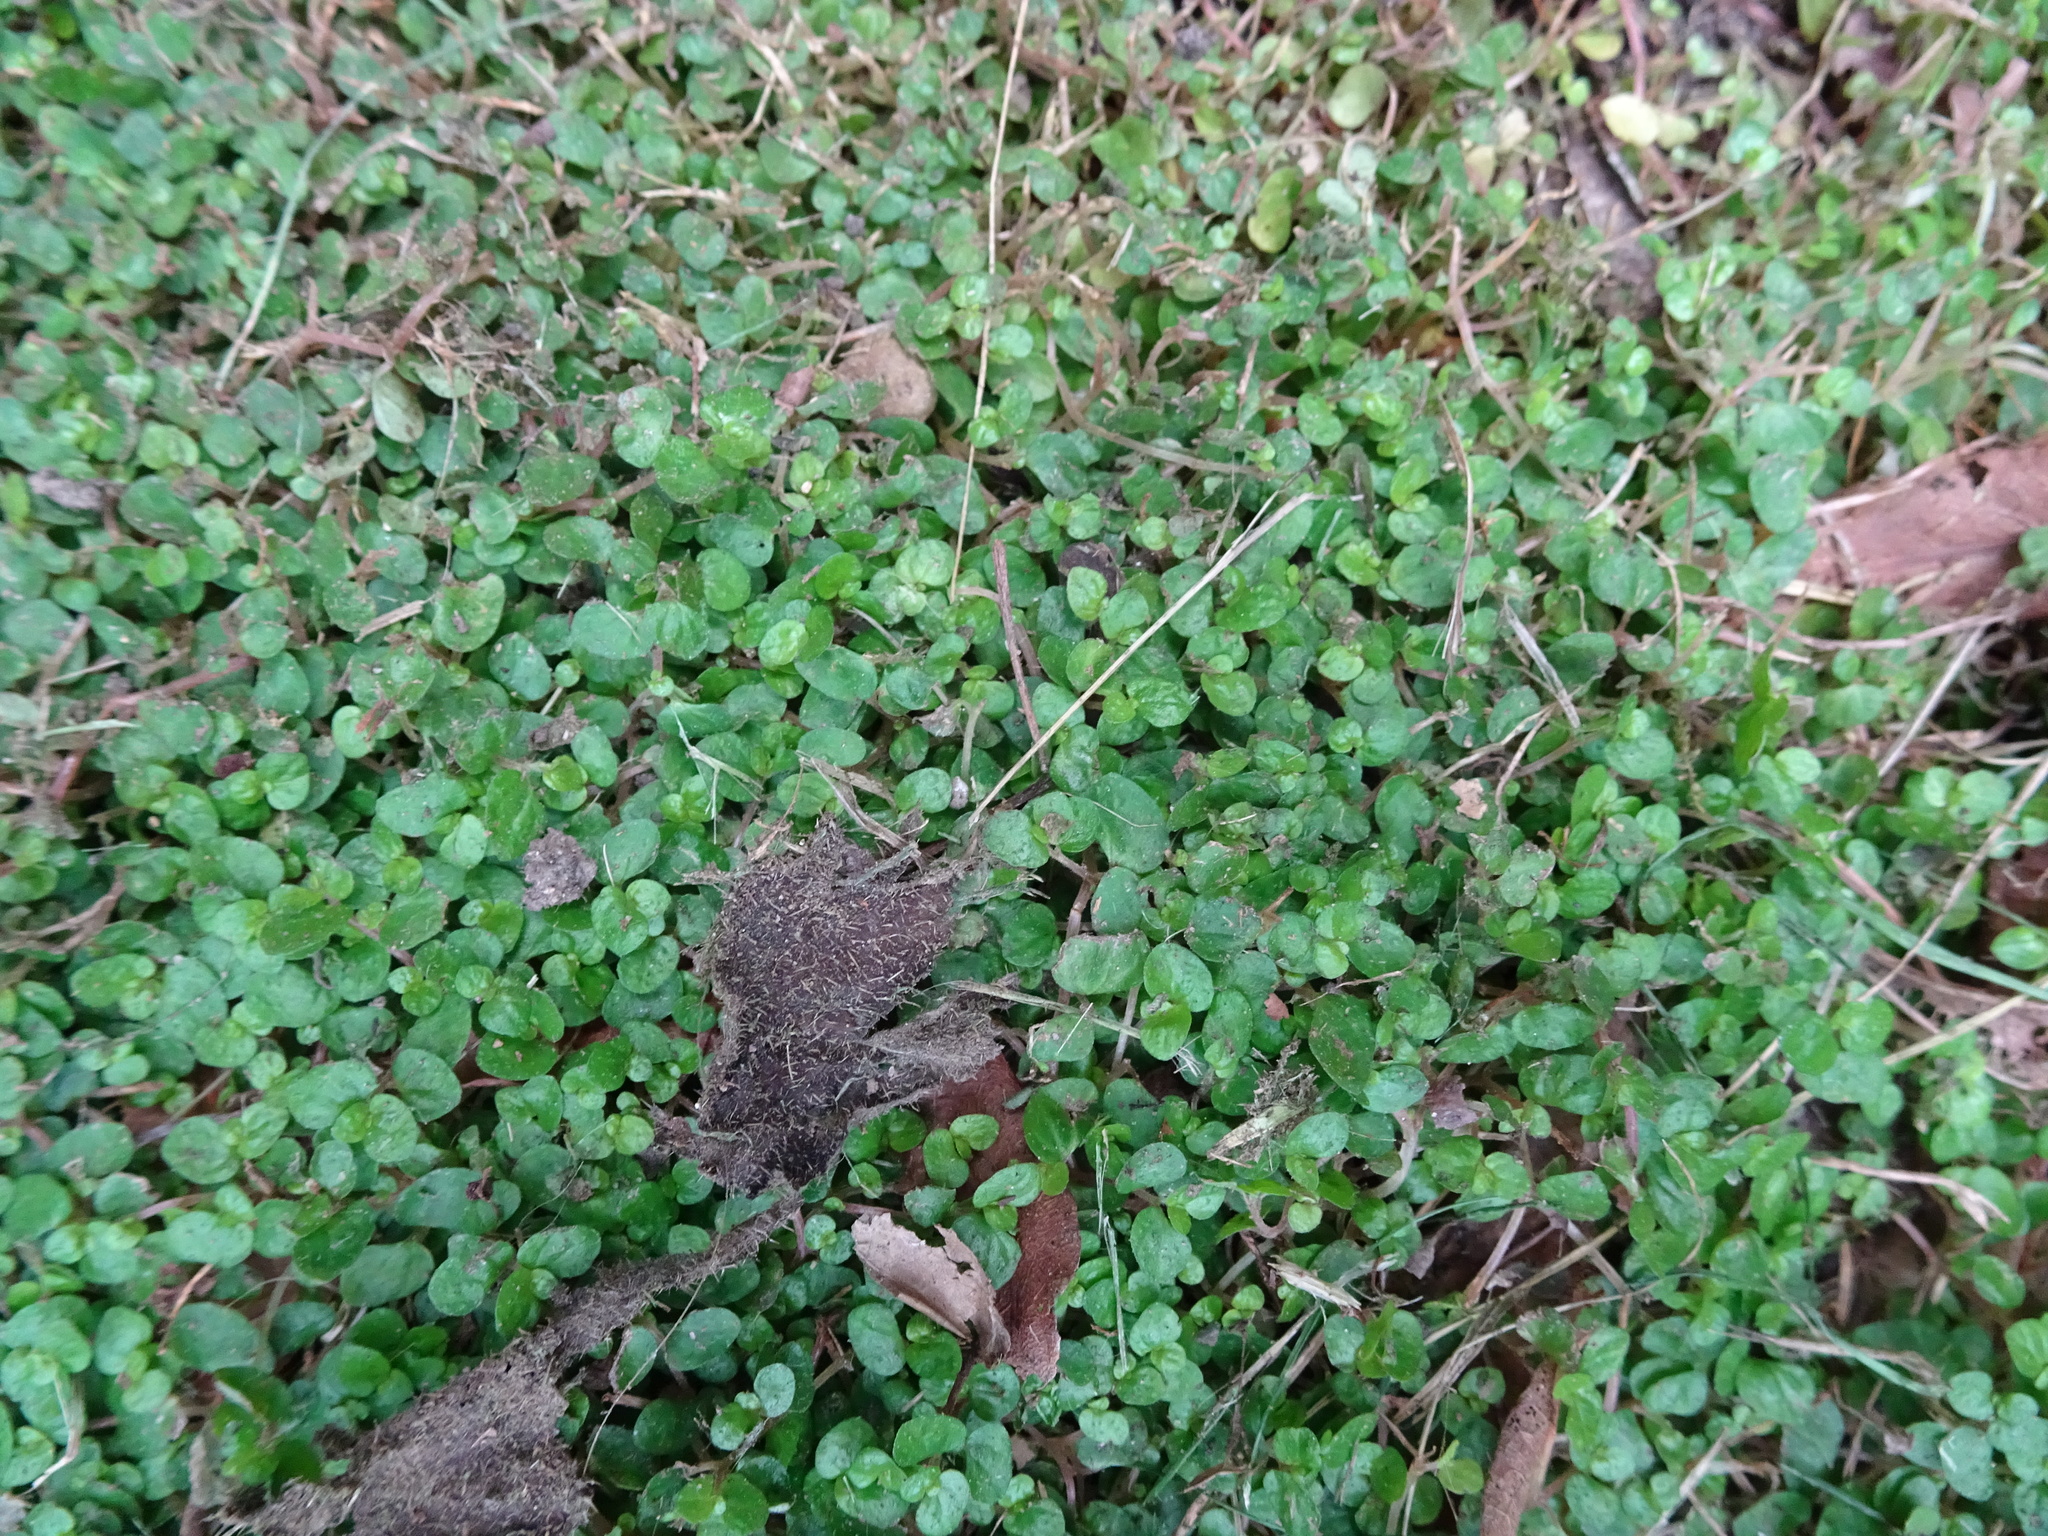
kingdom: Plantae
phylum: Tracheophyta
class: Magnoliopsida
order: Rosales
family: Urticaceae
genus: Soleirolia
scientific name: Soleirolia soleirolii
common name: Mind-your-own-business
